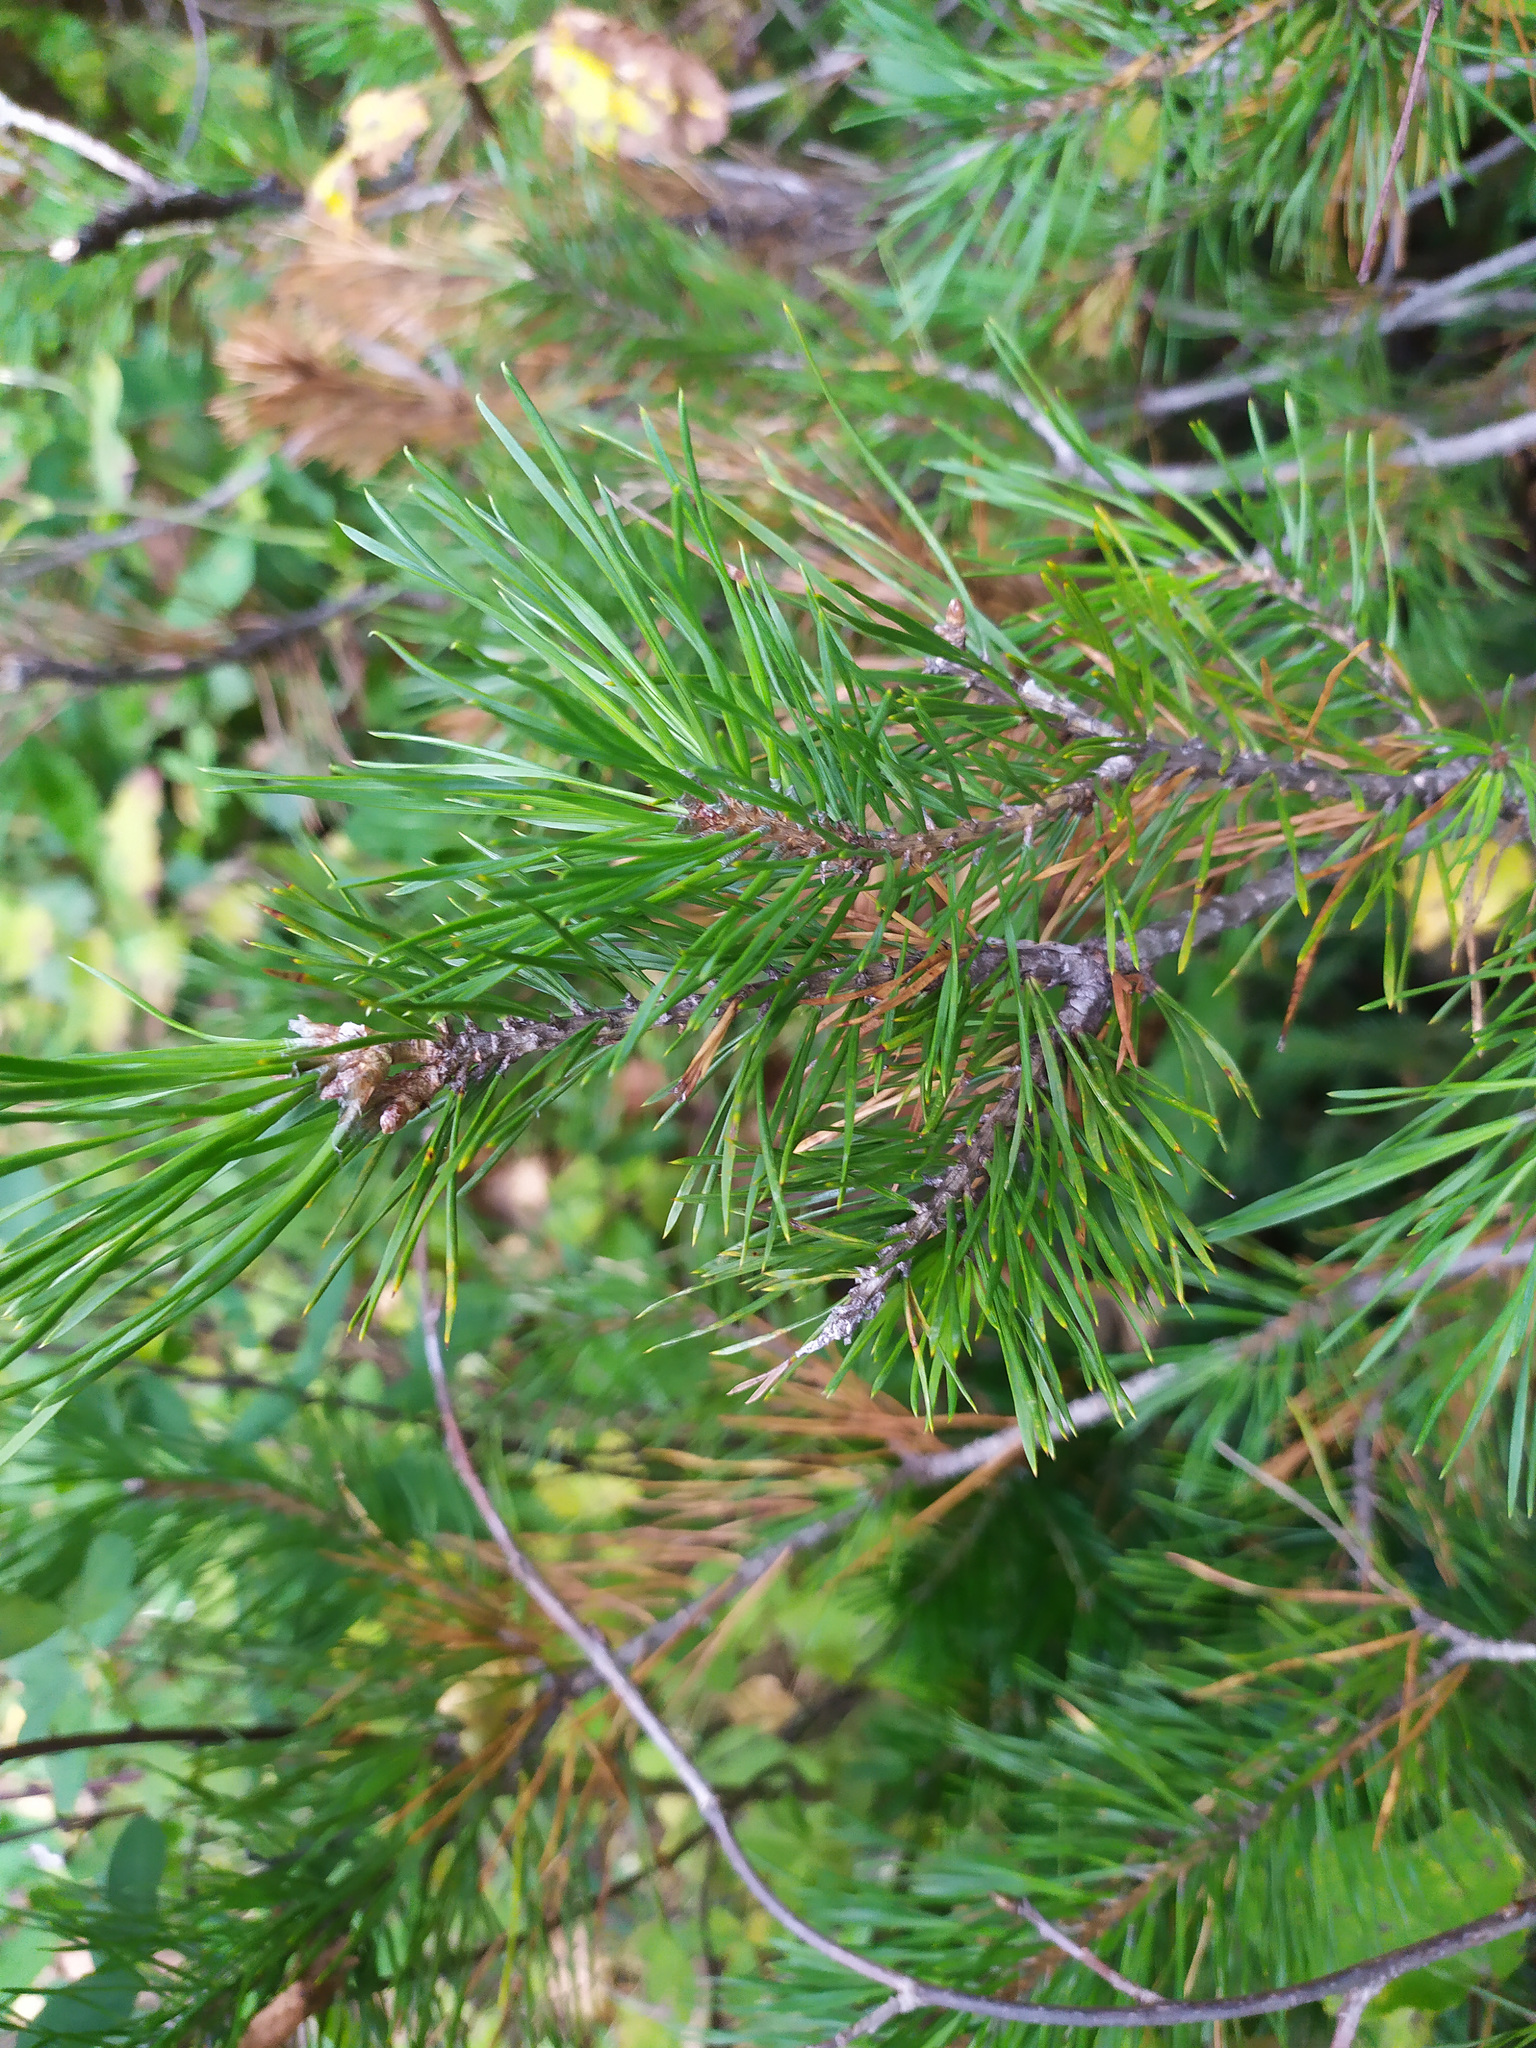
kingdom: Plantae
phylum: Tracheophyta
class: Pinopsida
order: Pinales
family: Pinaceae
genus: Pinus
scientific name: Pinus sylvestris
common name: Scots pine
